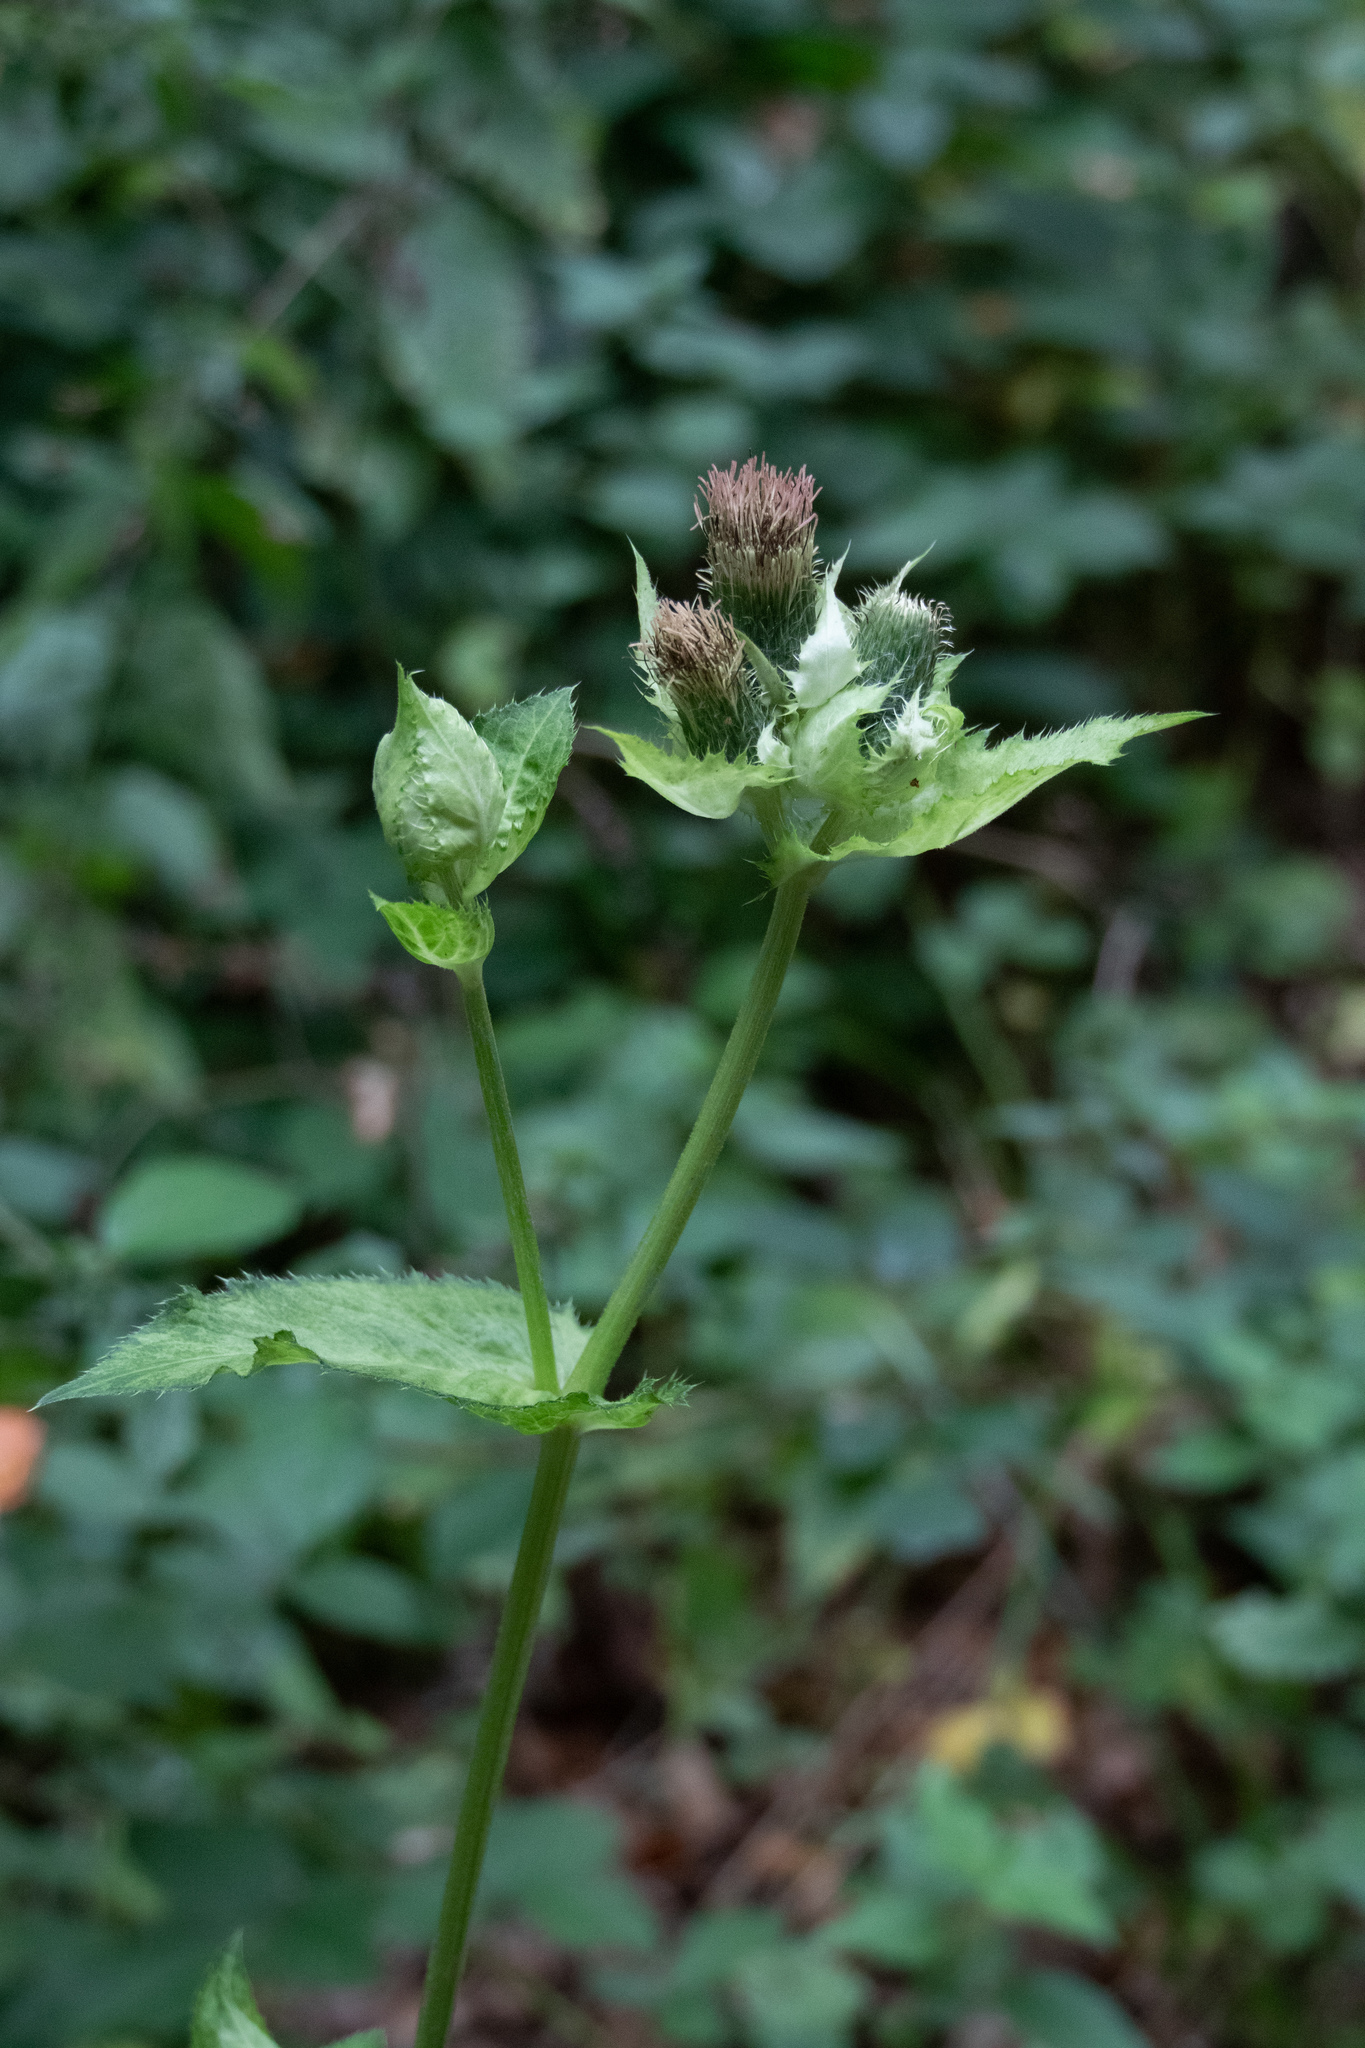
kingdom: Plantae
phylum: Tracheophyta
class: Magnoliopsida
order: Asterales
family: Asteraceae
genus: Cirsium
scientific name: Cirsium oleraceum
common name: Cabbage thistle
